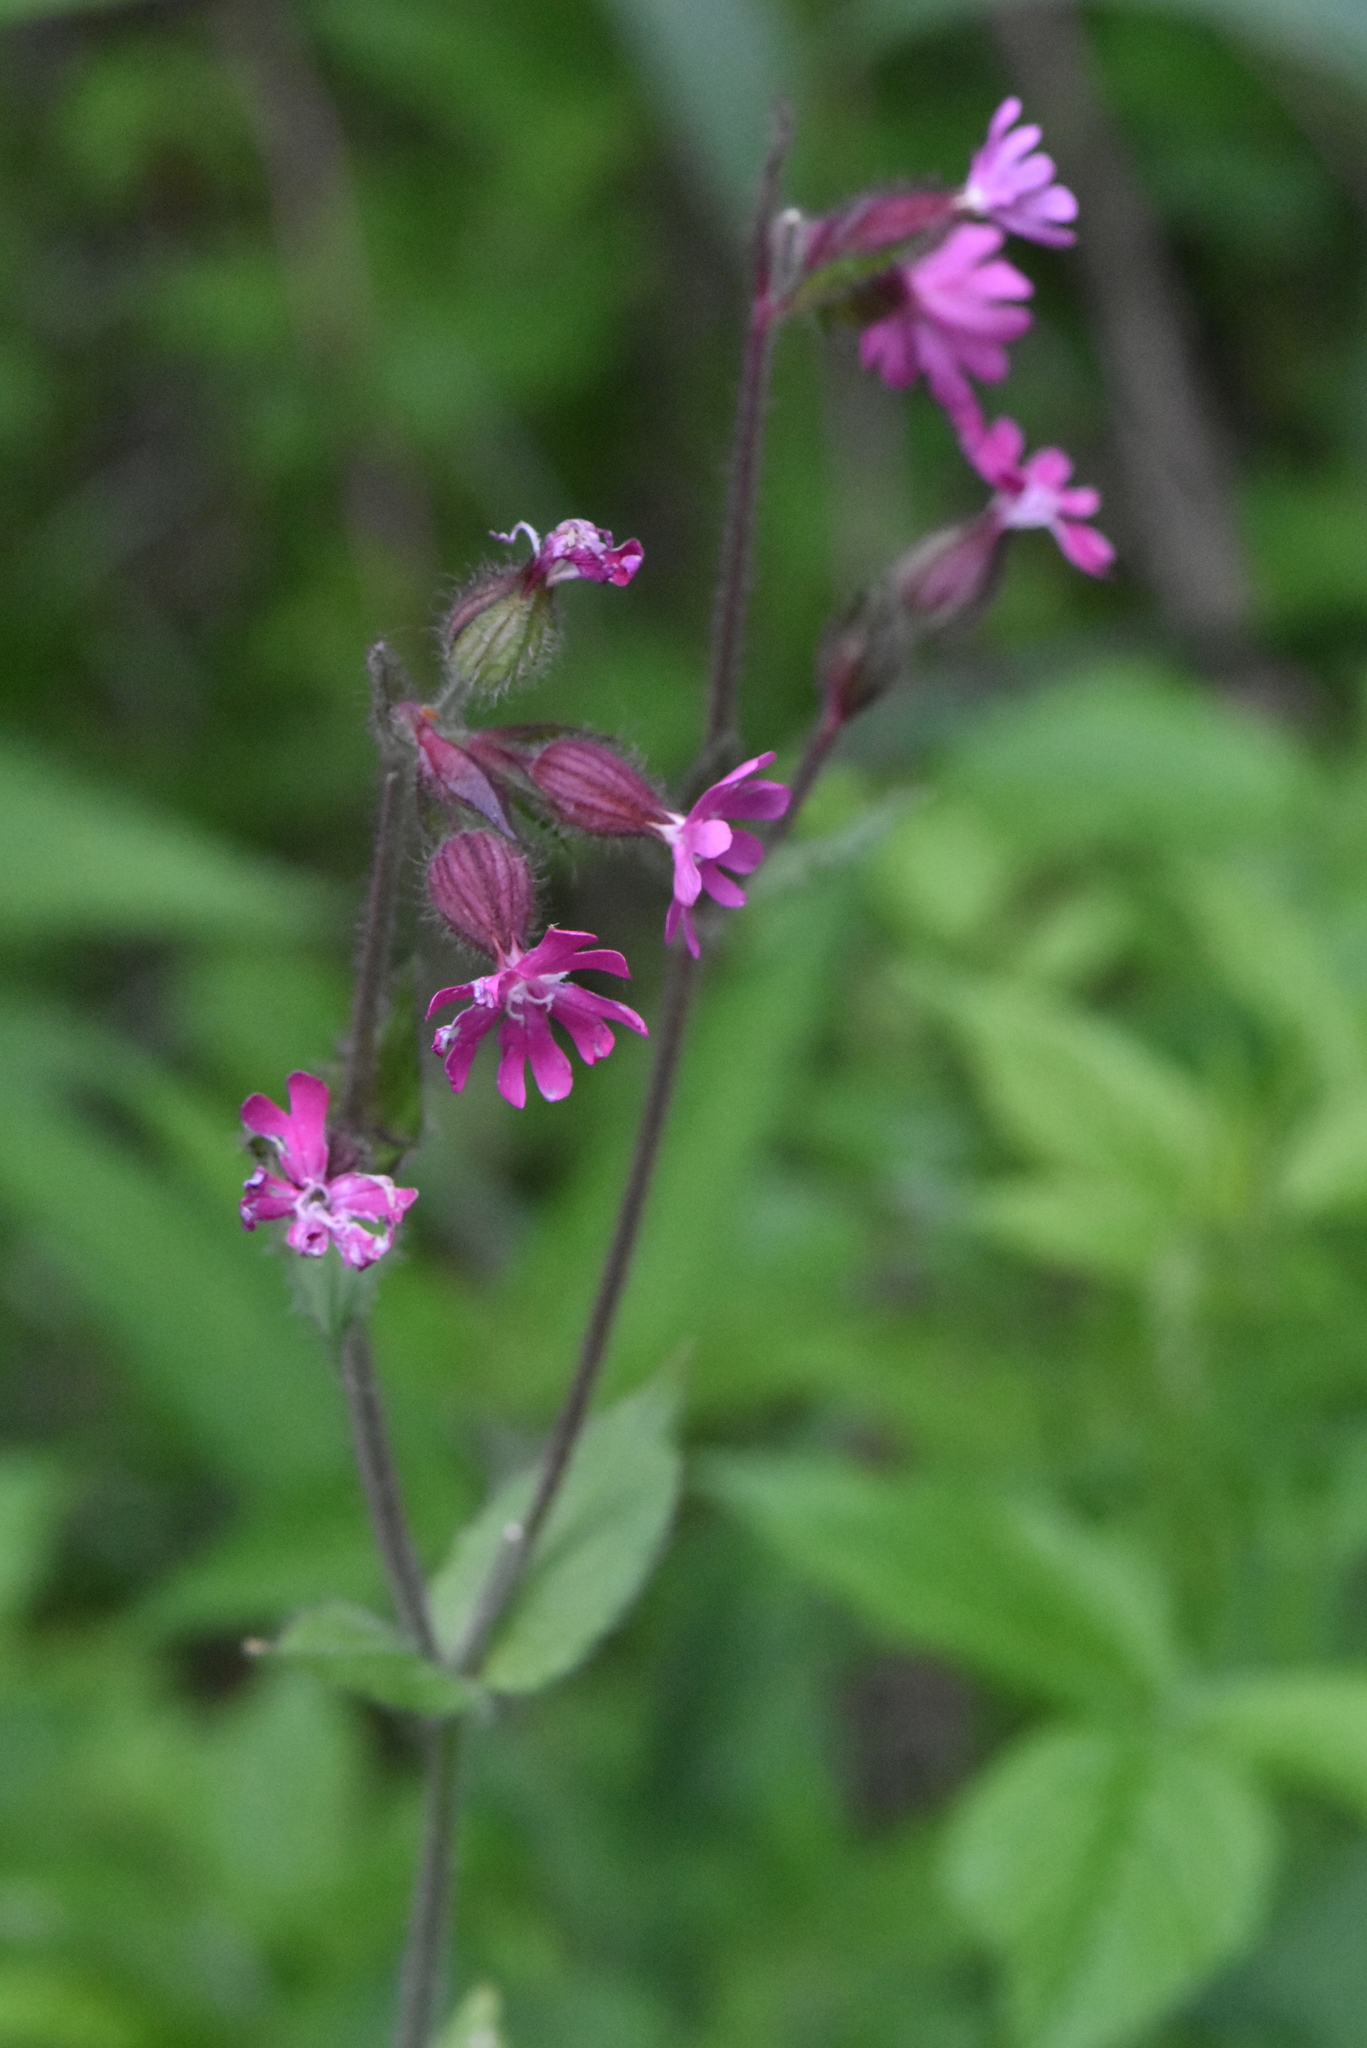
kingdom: Plantae
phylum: Tracheophyta
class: Magnoliopsida
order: Caryophyllales
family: Caryophyllaceae
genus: Silene
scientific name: Silene dioica
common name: Red campion
